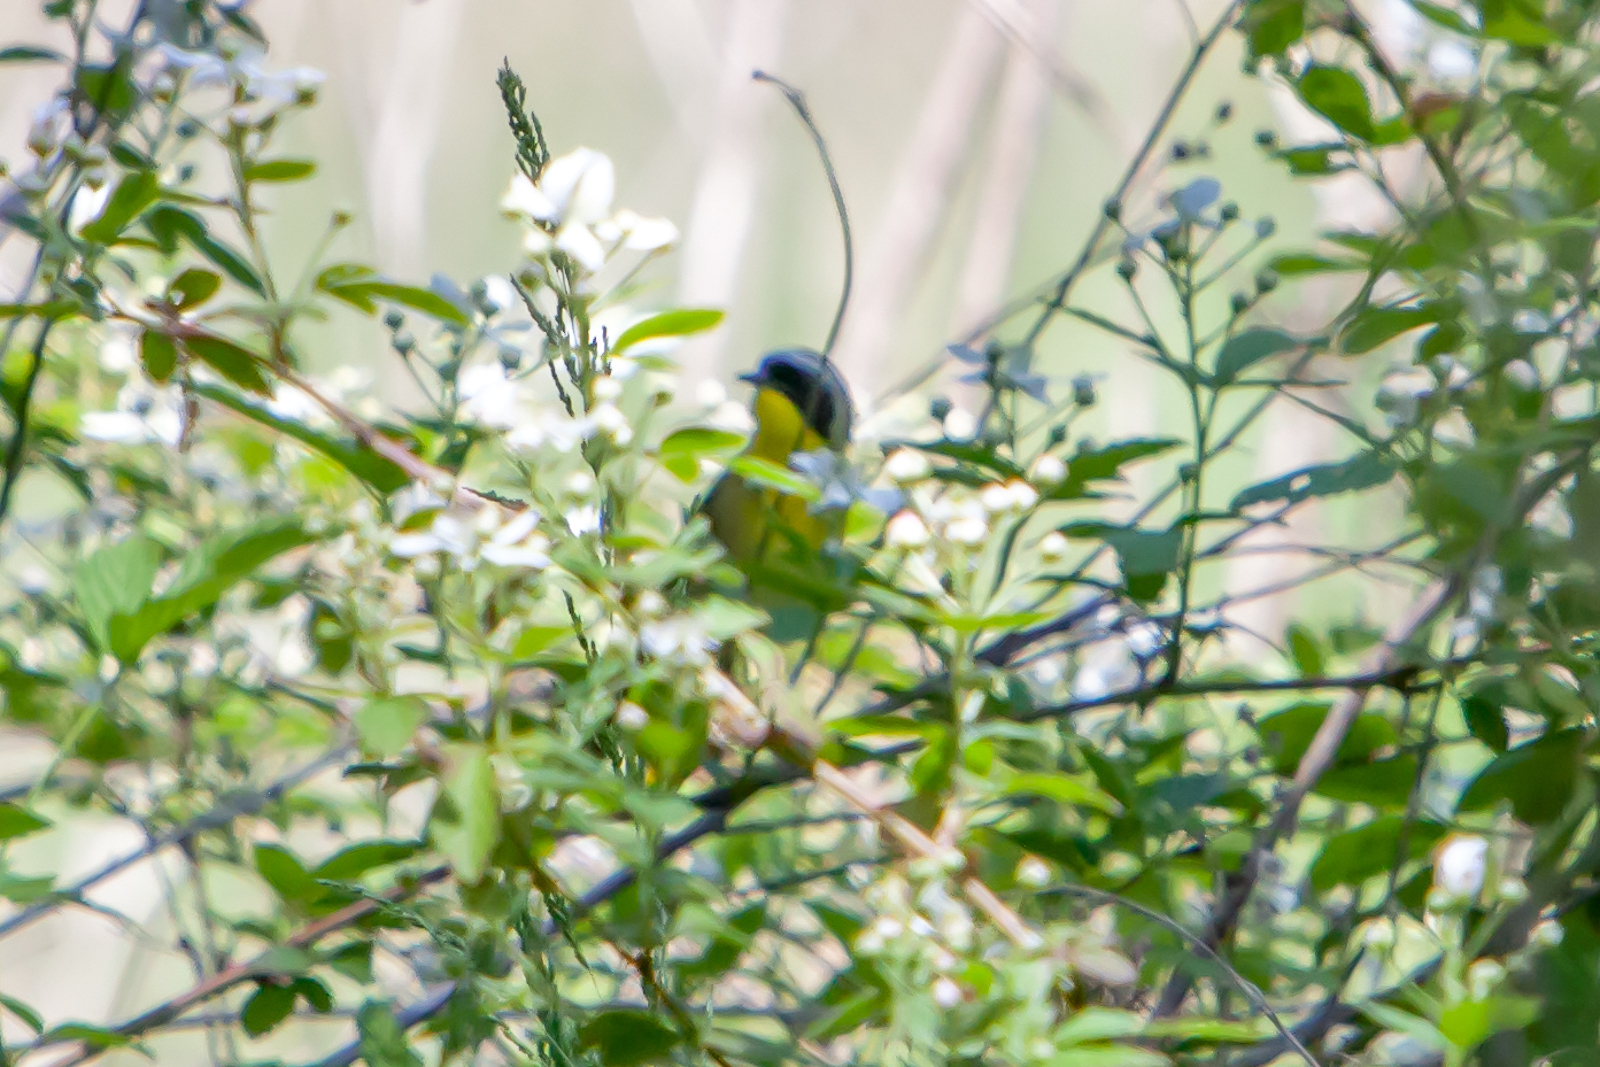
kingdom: Animalia
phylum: Chordata
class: Aves
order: Passeriformes
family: Parulidae
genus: Geothlypis
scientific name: Geothlypis trichas
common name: Common yellowthroat
